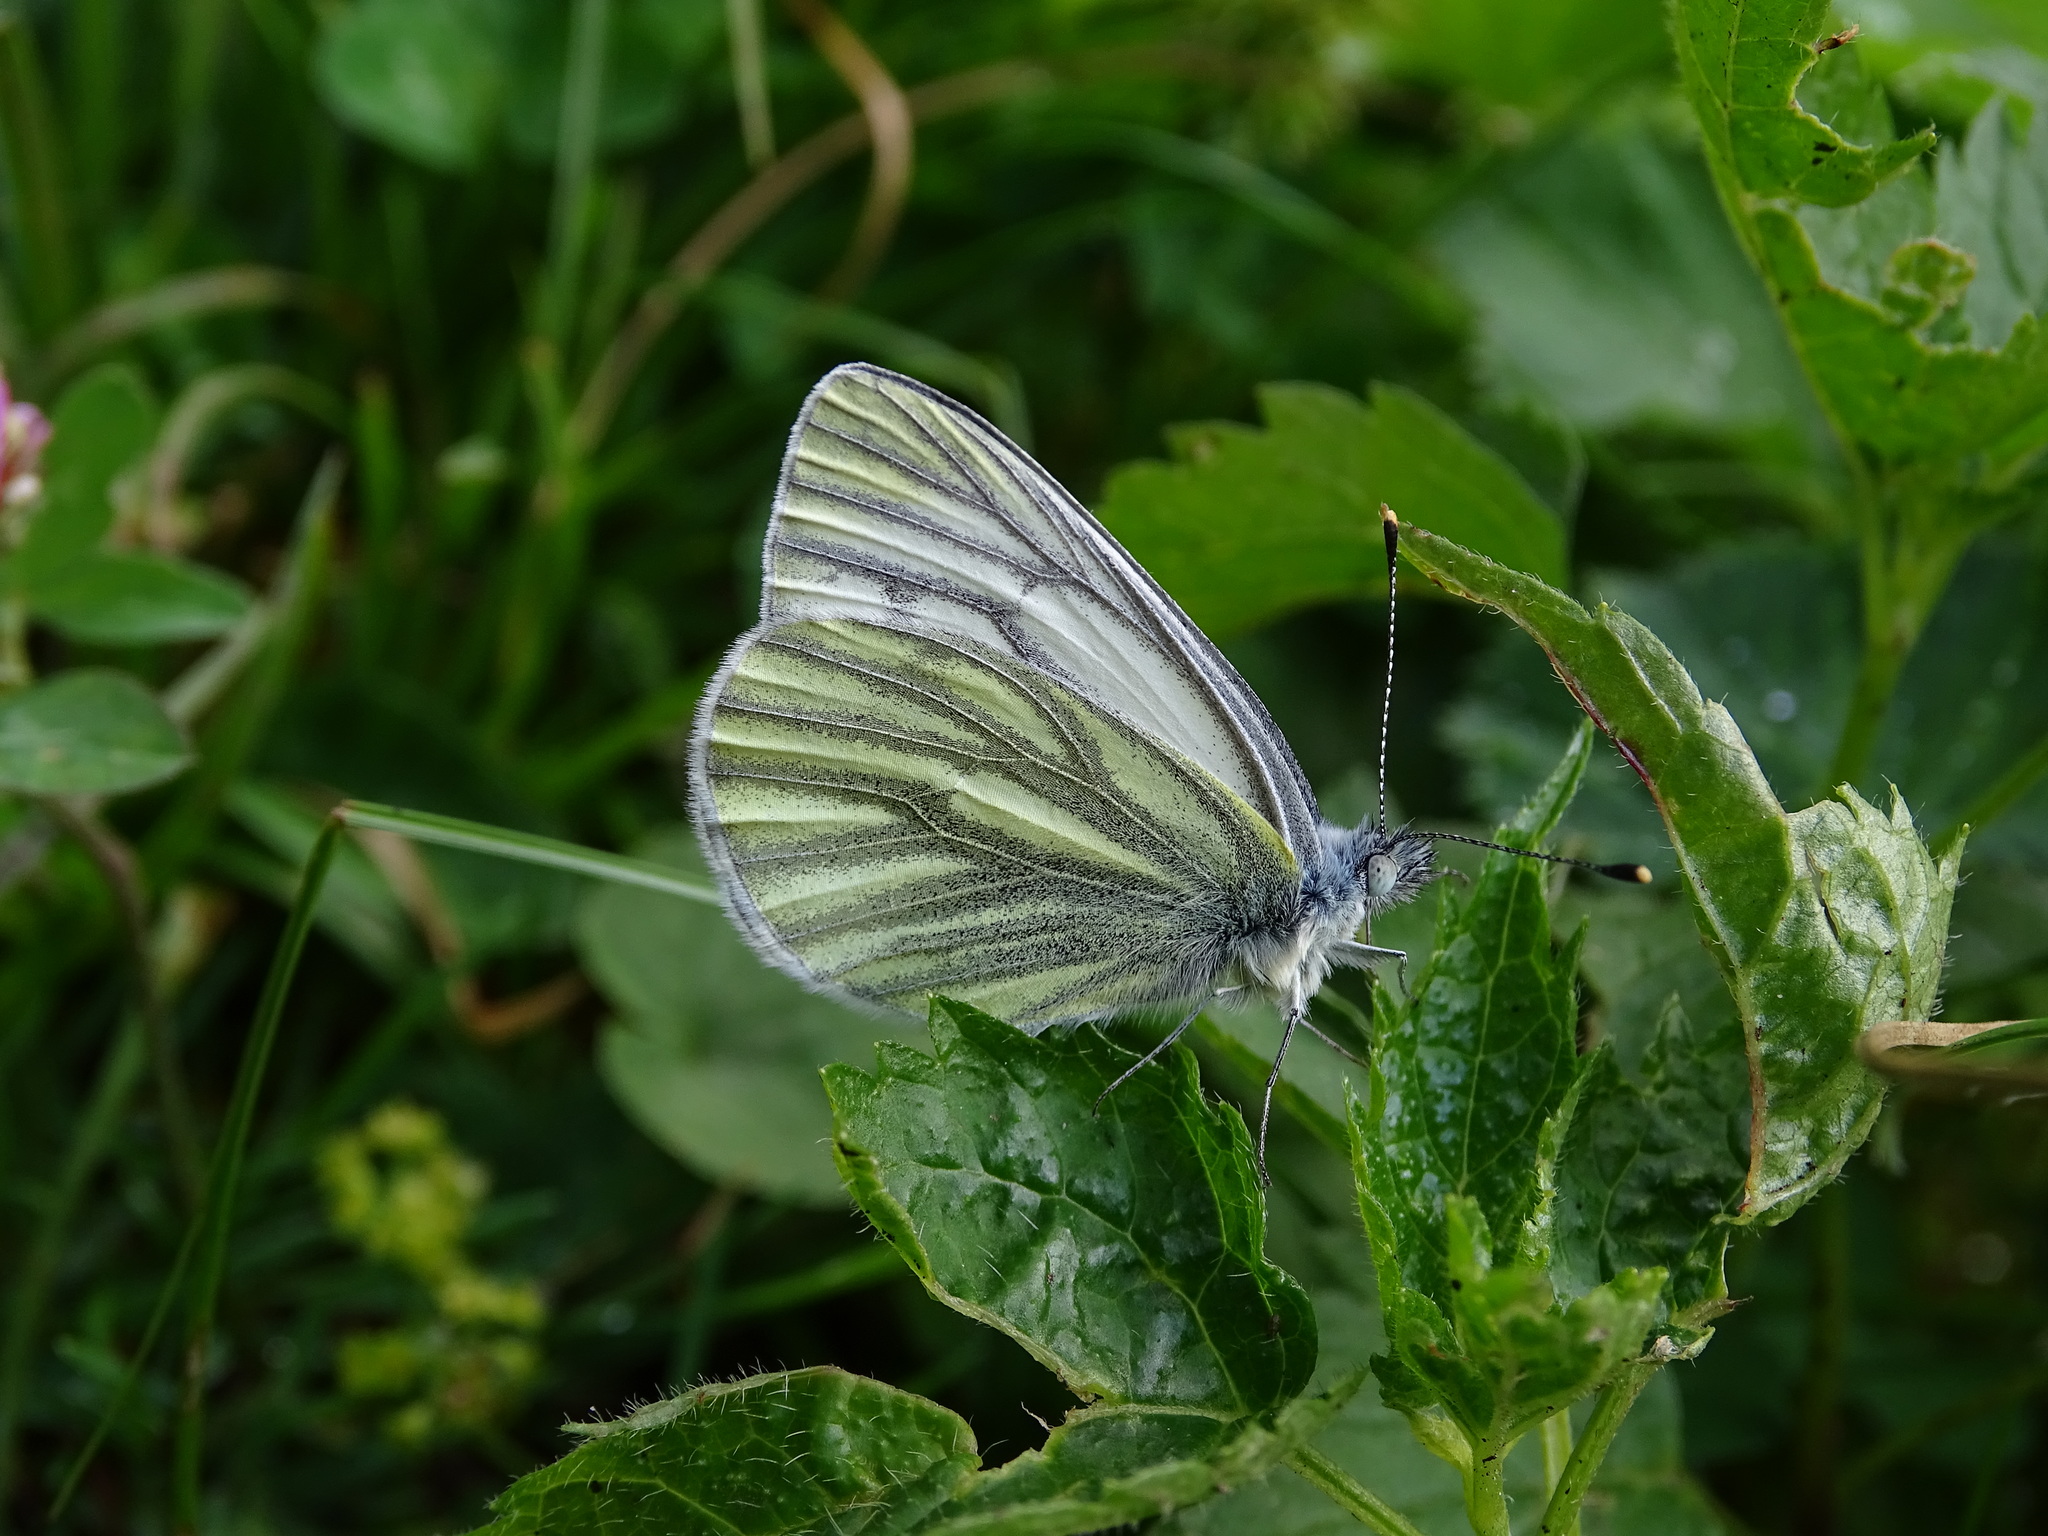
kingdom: Animalia
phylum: Arthropoda
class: Insecta
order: Lepidoptera
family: Pieridae
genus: Pieris
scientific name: Pieris bryoniae
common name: Mountain green-veined white
